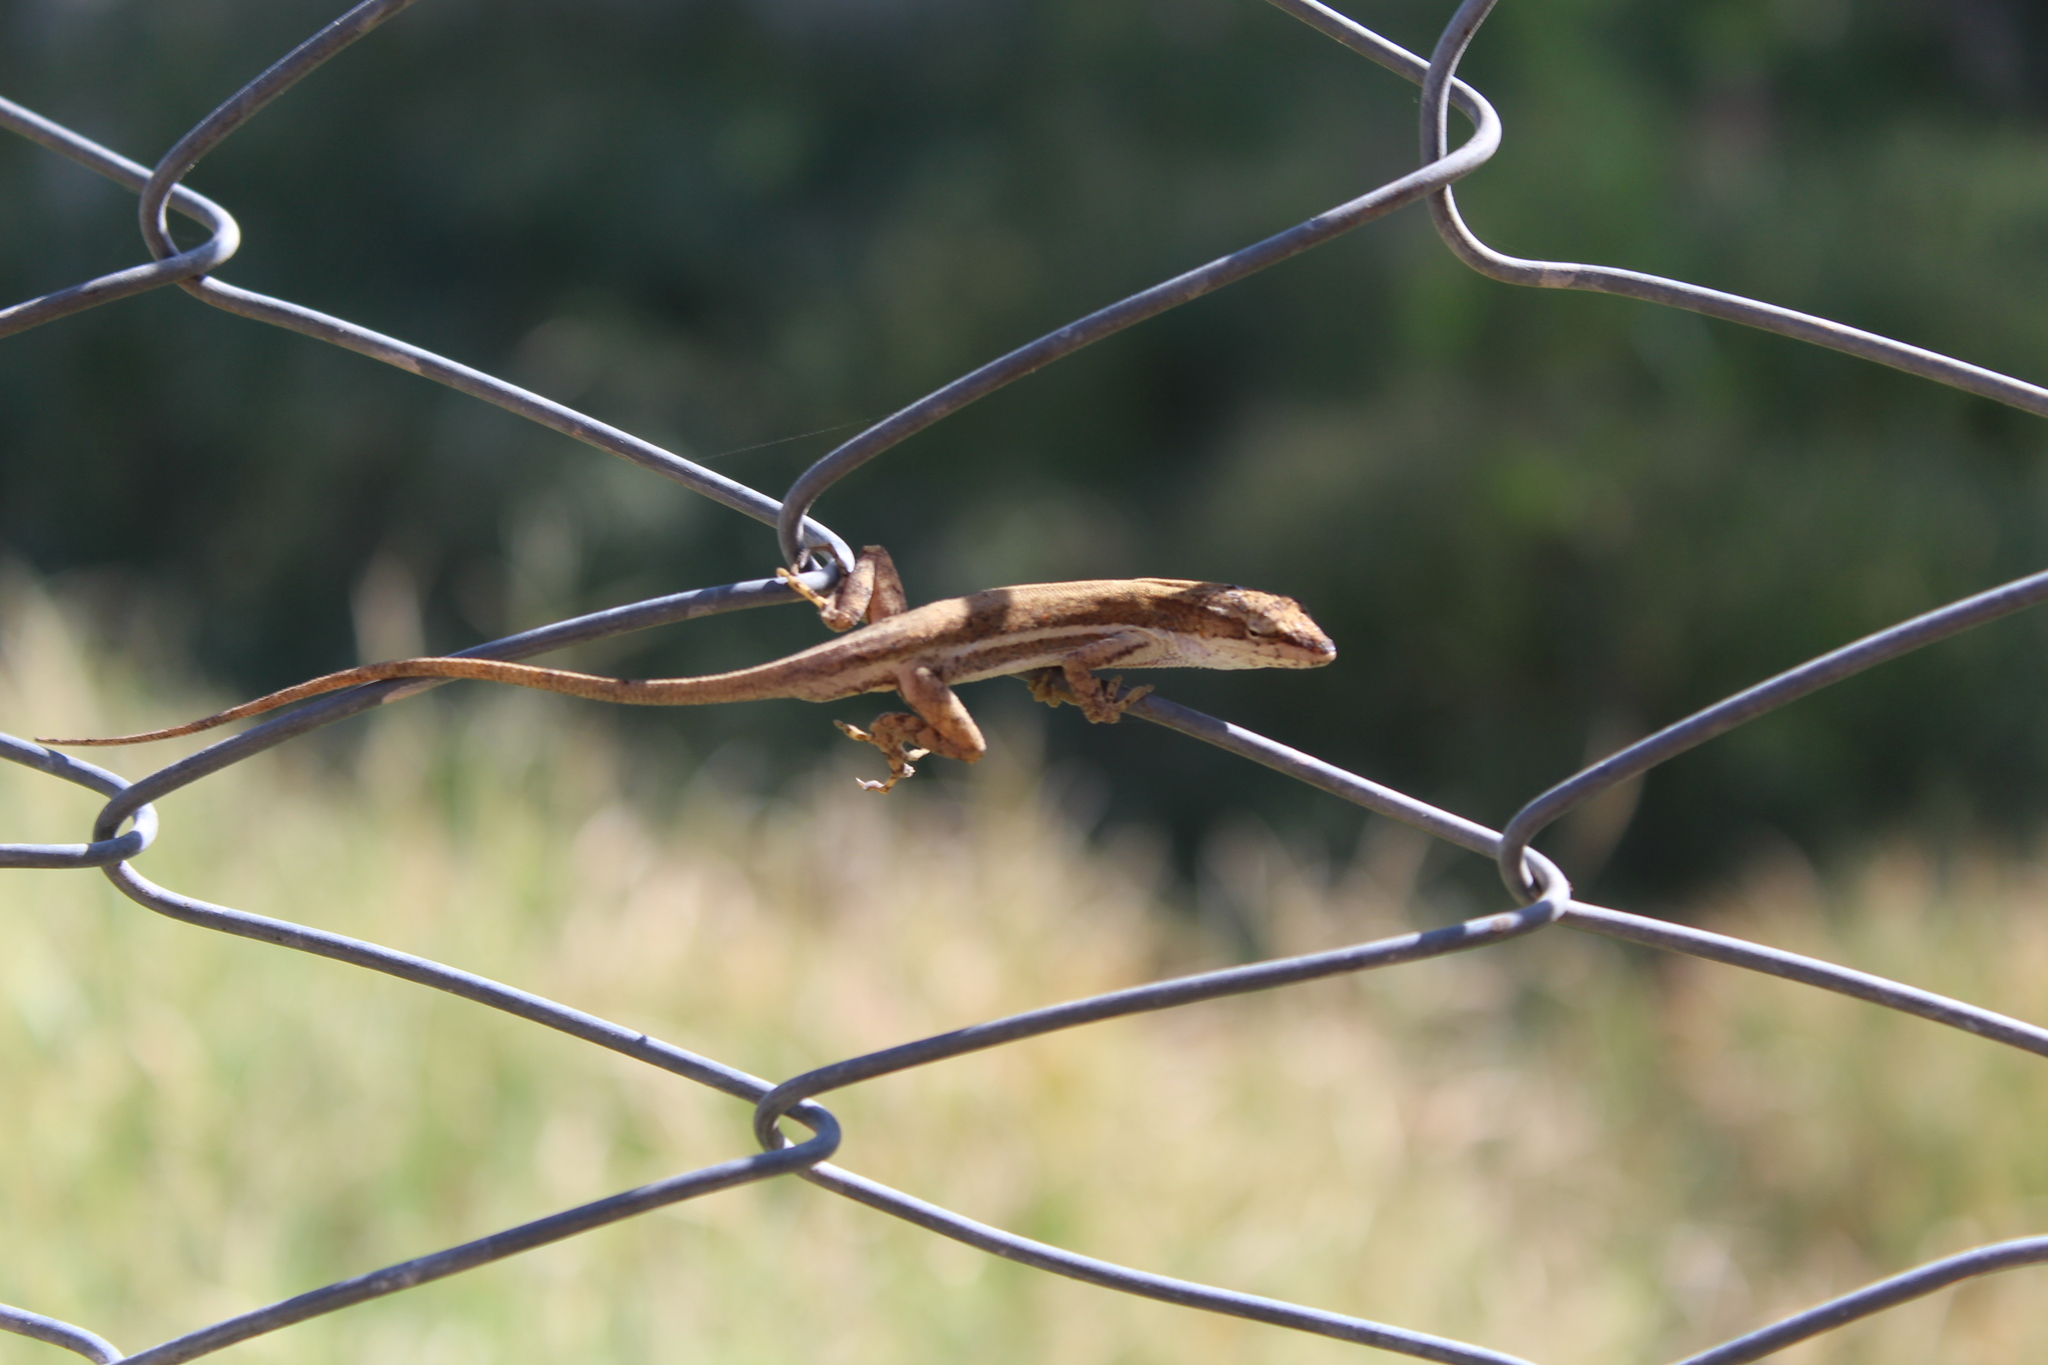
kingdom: Animalia
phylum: Chordata
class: Squamata
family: Dactyloidae
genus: Anolis
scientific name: Anolis quercorum
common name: Gray anole
